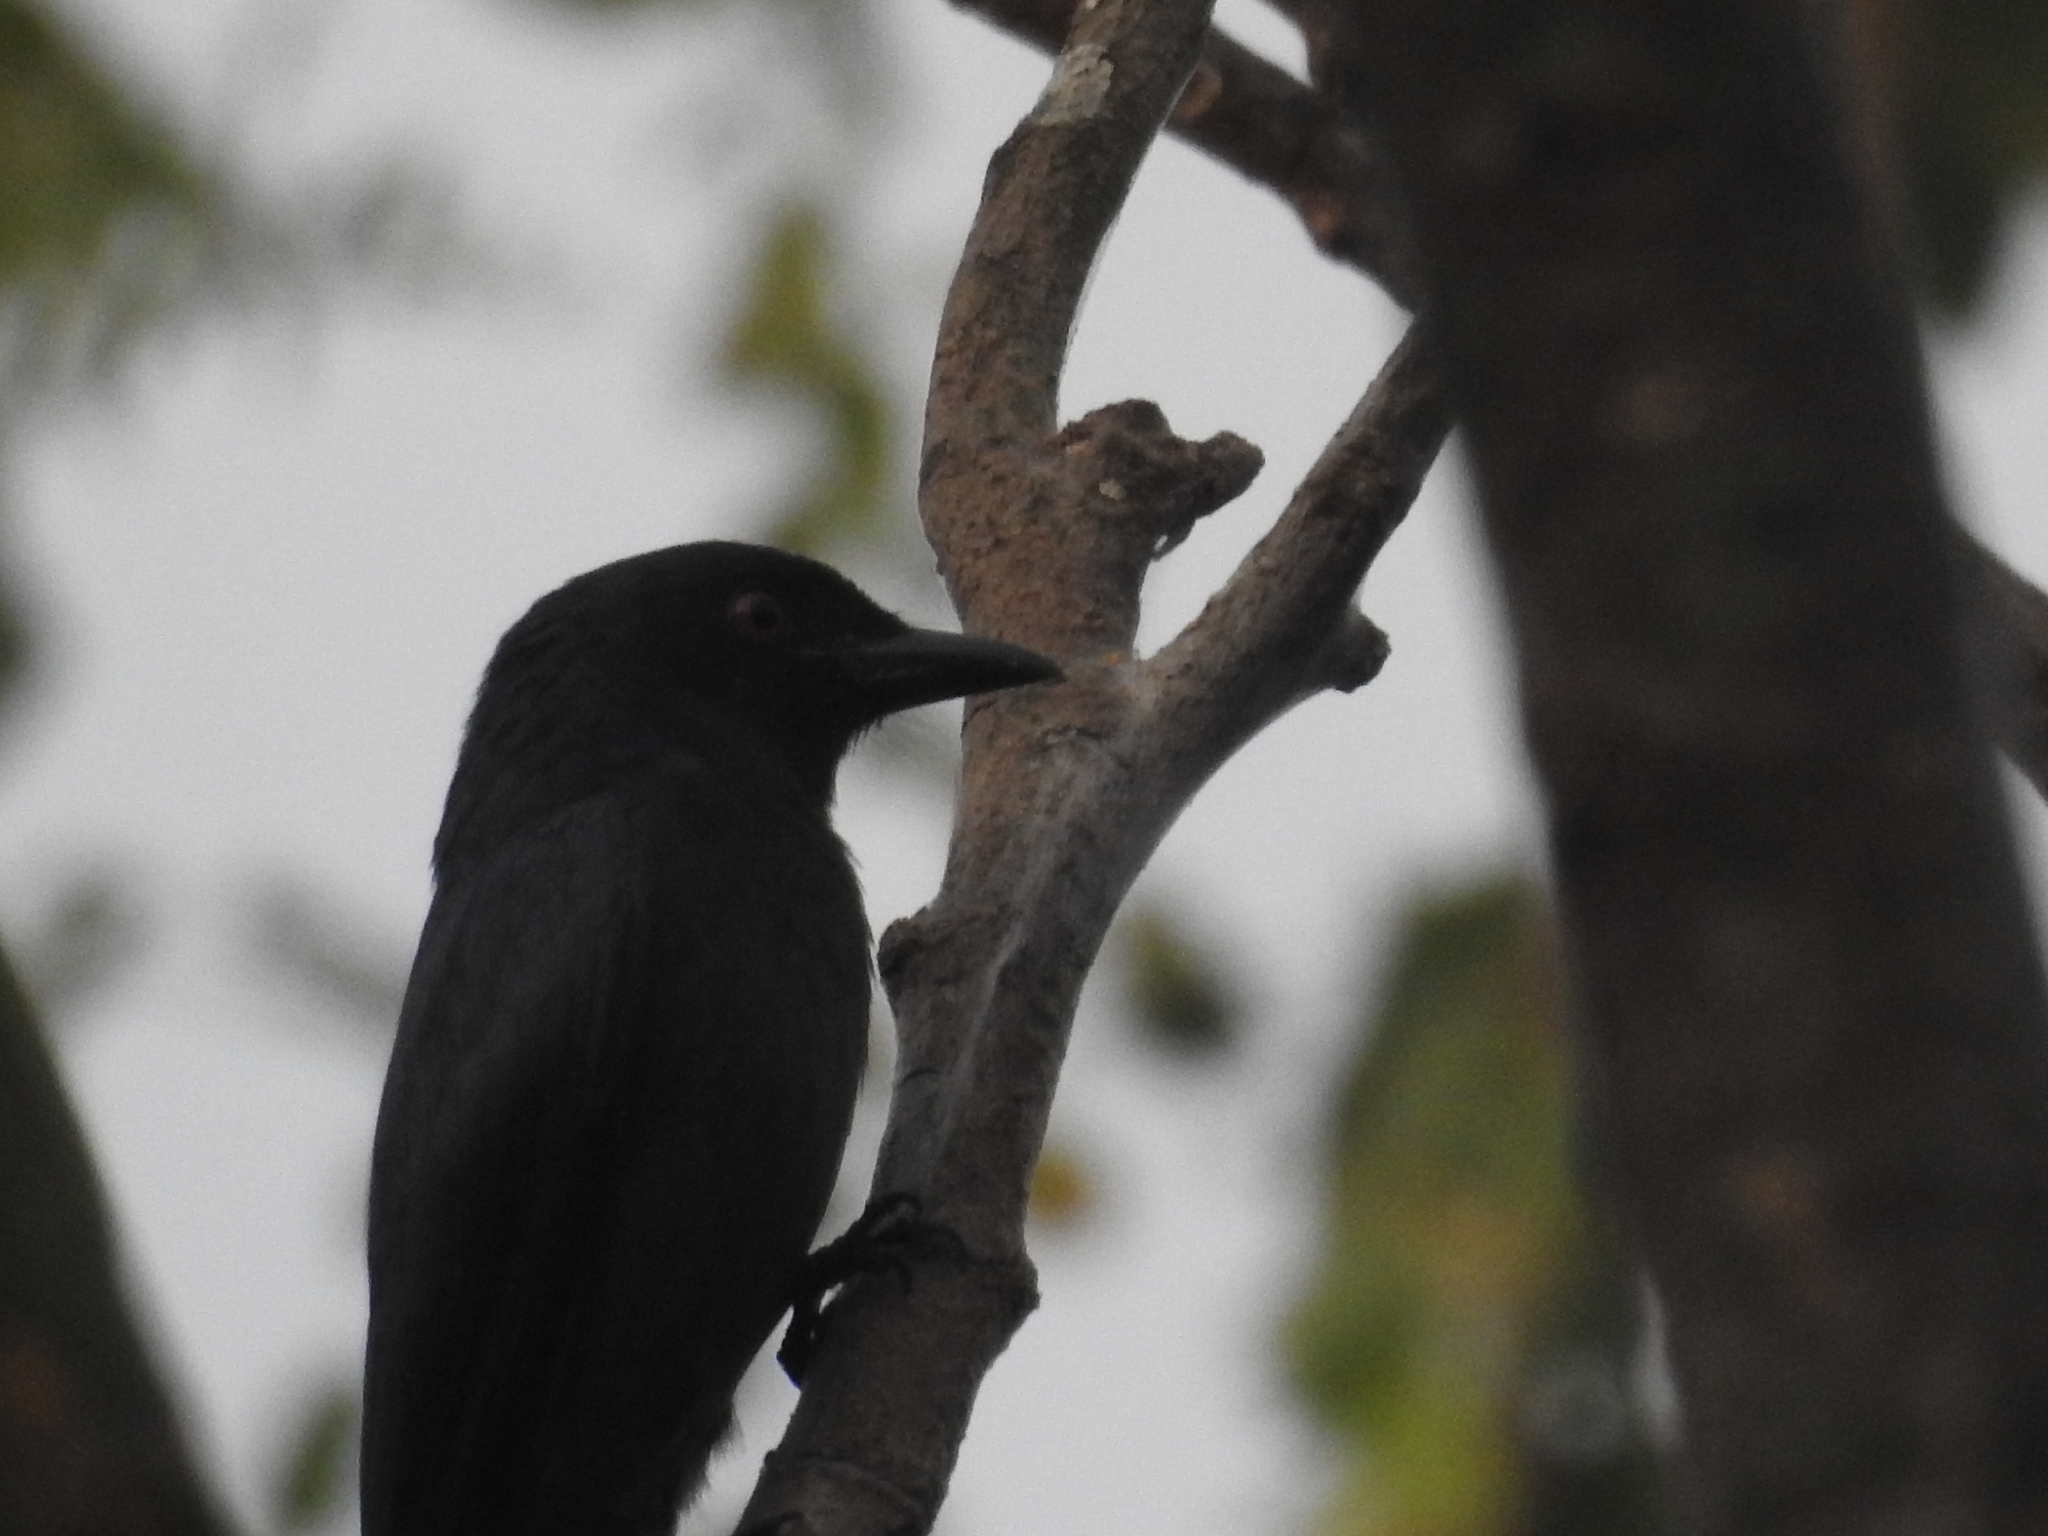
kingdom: Animalia
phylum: Chordata
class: Aves
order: Passeriformes
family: Dicruridae
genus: Dicrurus
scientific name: Dicrurus leucophaeus
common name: Ashy drongo
